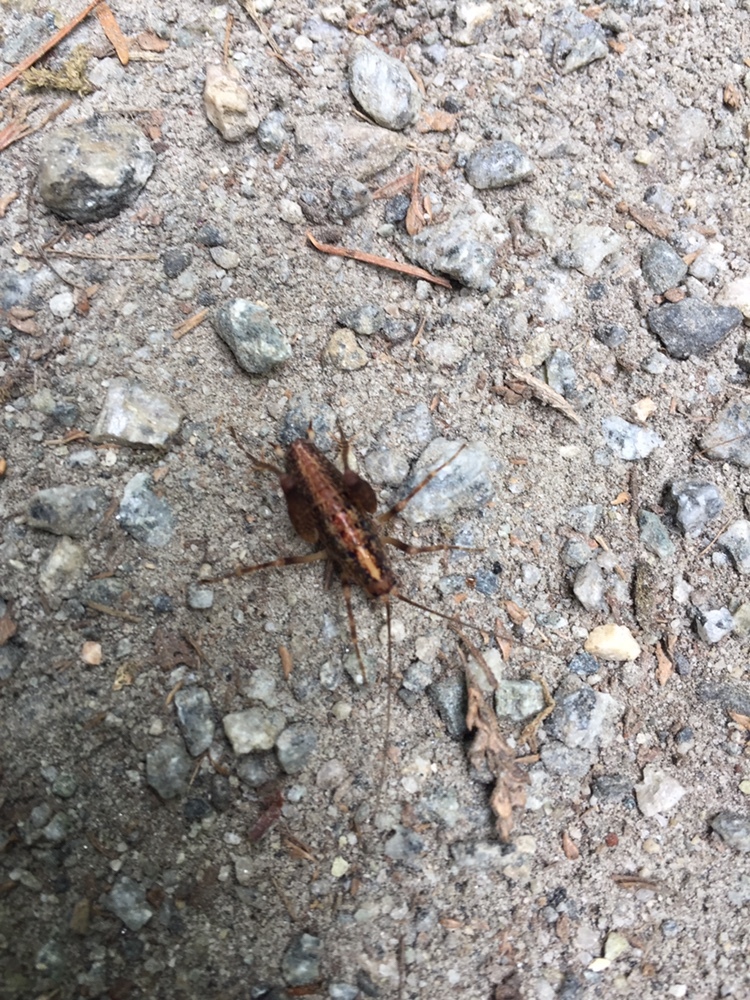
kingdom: Animalia
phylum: Arthropoda
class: Insecta
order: Orthoptera
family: Rhaphidophoridae
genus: Pristoceuthophilus
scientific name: Pristoceuthophilus celatus
